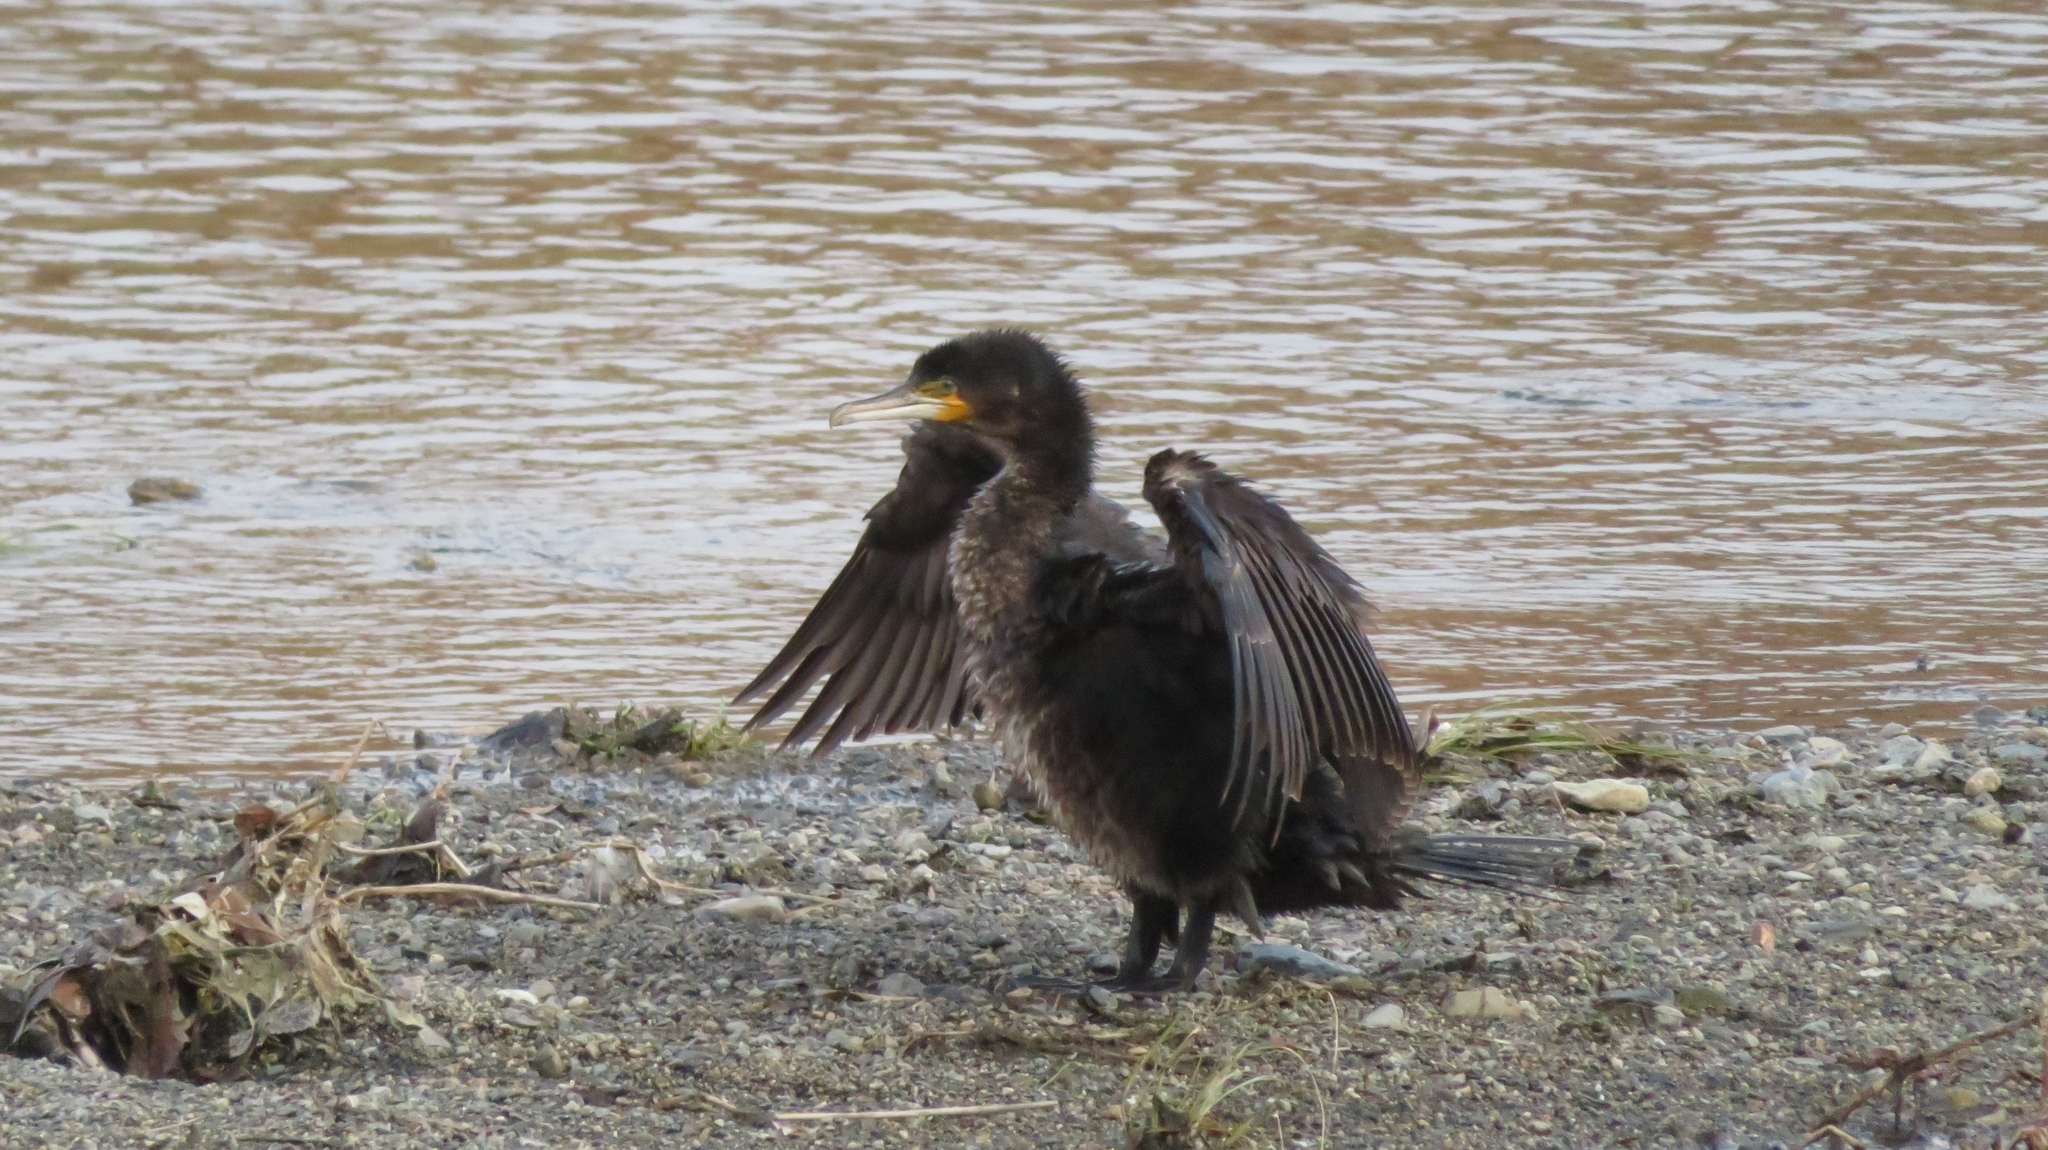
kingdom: Animalia
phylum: Chordata
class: Aves
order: Suliformes
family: Phalacrocoracidae
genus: Phalacrocorax
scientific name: Phalacrocorax carbo
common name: Great cormorant
